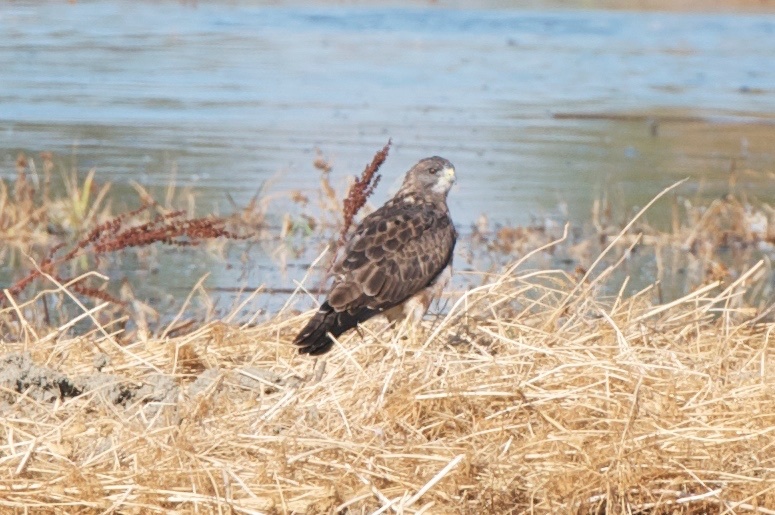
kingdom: Animalia
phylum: Chordata
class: Aves
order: Accipitriformes
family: Accipitridae
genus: Buteo
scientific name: Buteo swainsoni
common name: Swainson's hawk
